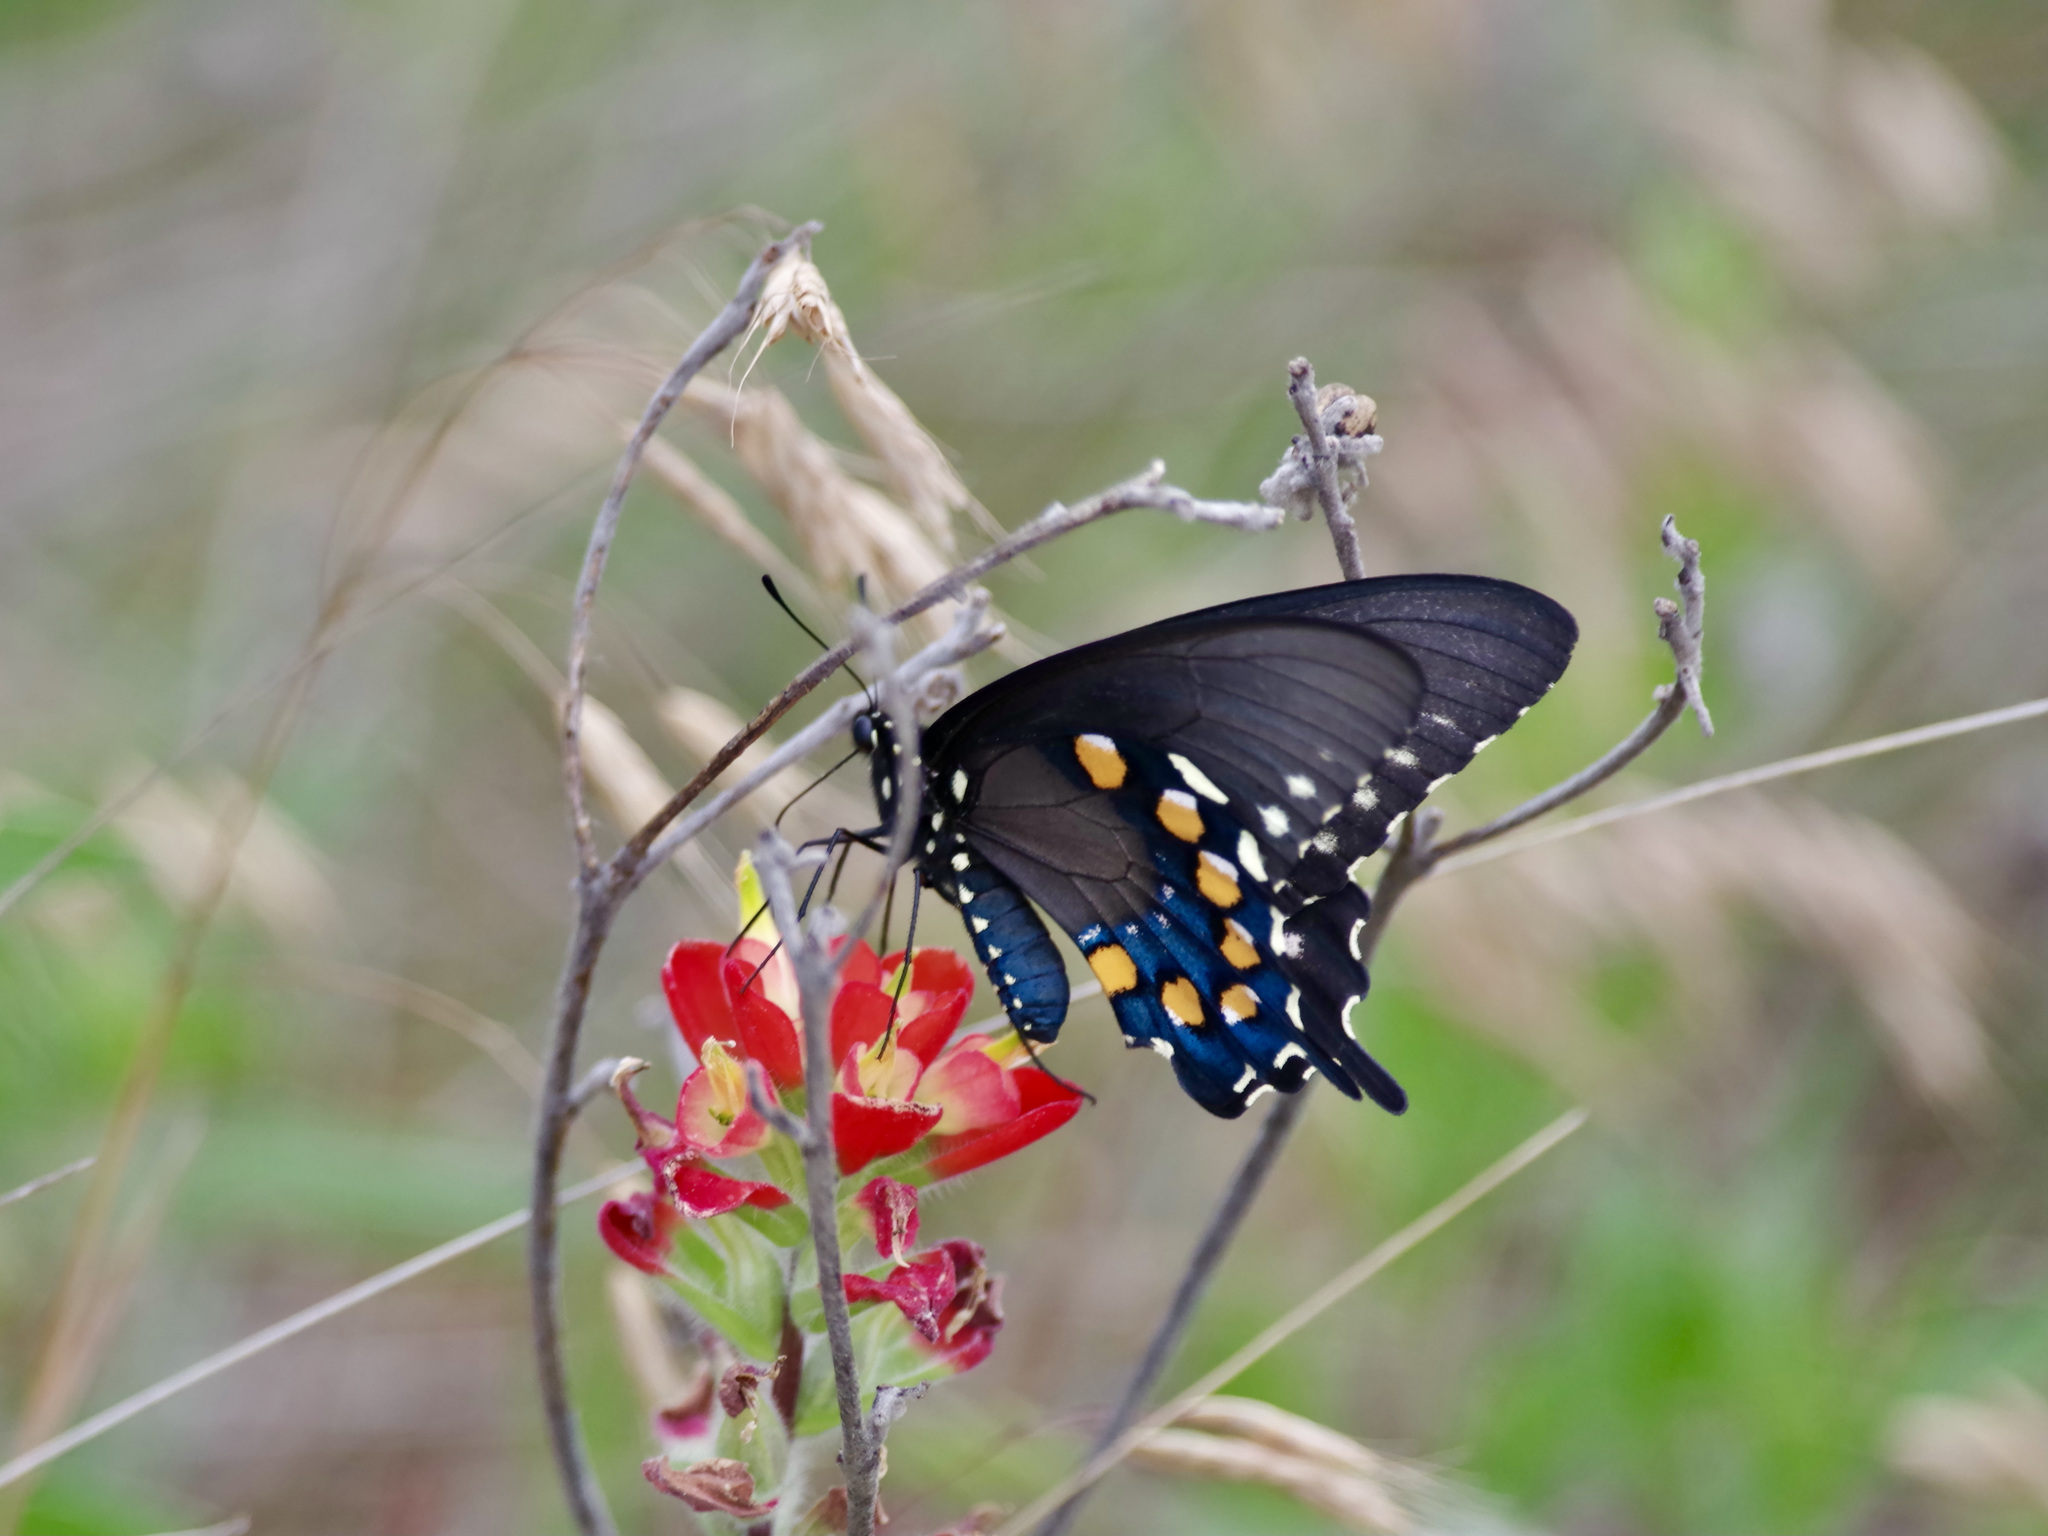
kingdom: Animalia
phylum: Arthropoda
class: Insecta
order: Lepidoptera
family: Papilionidae
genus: Battus
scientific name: Battus philenor
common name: Pipevine swallowtail
